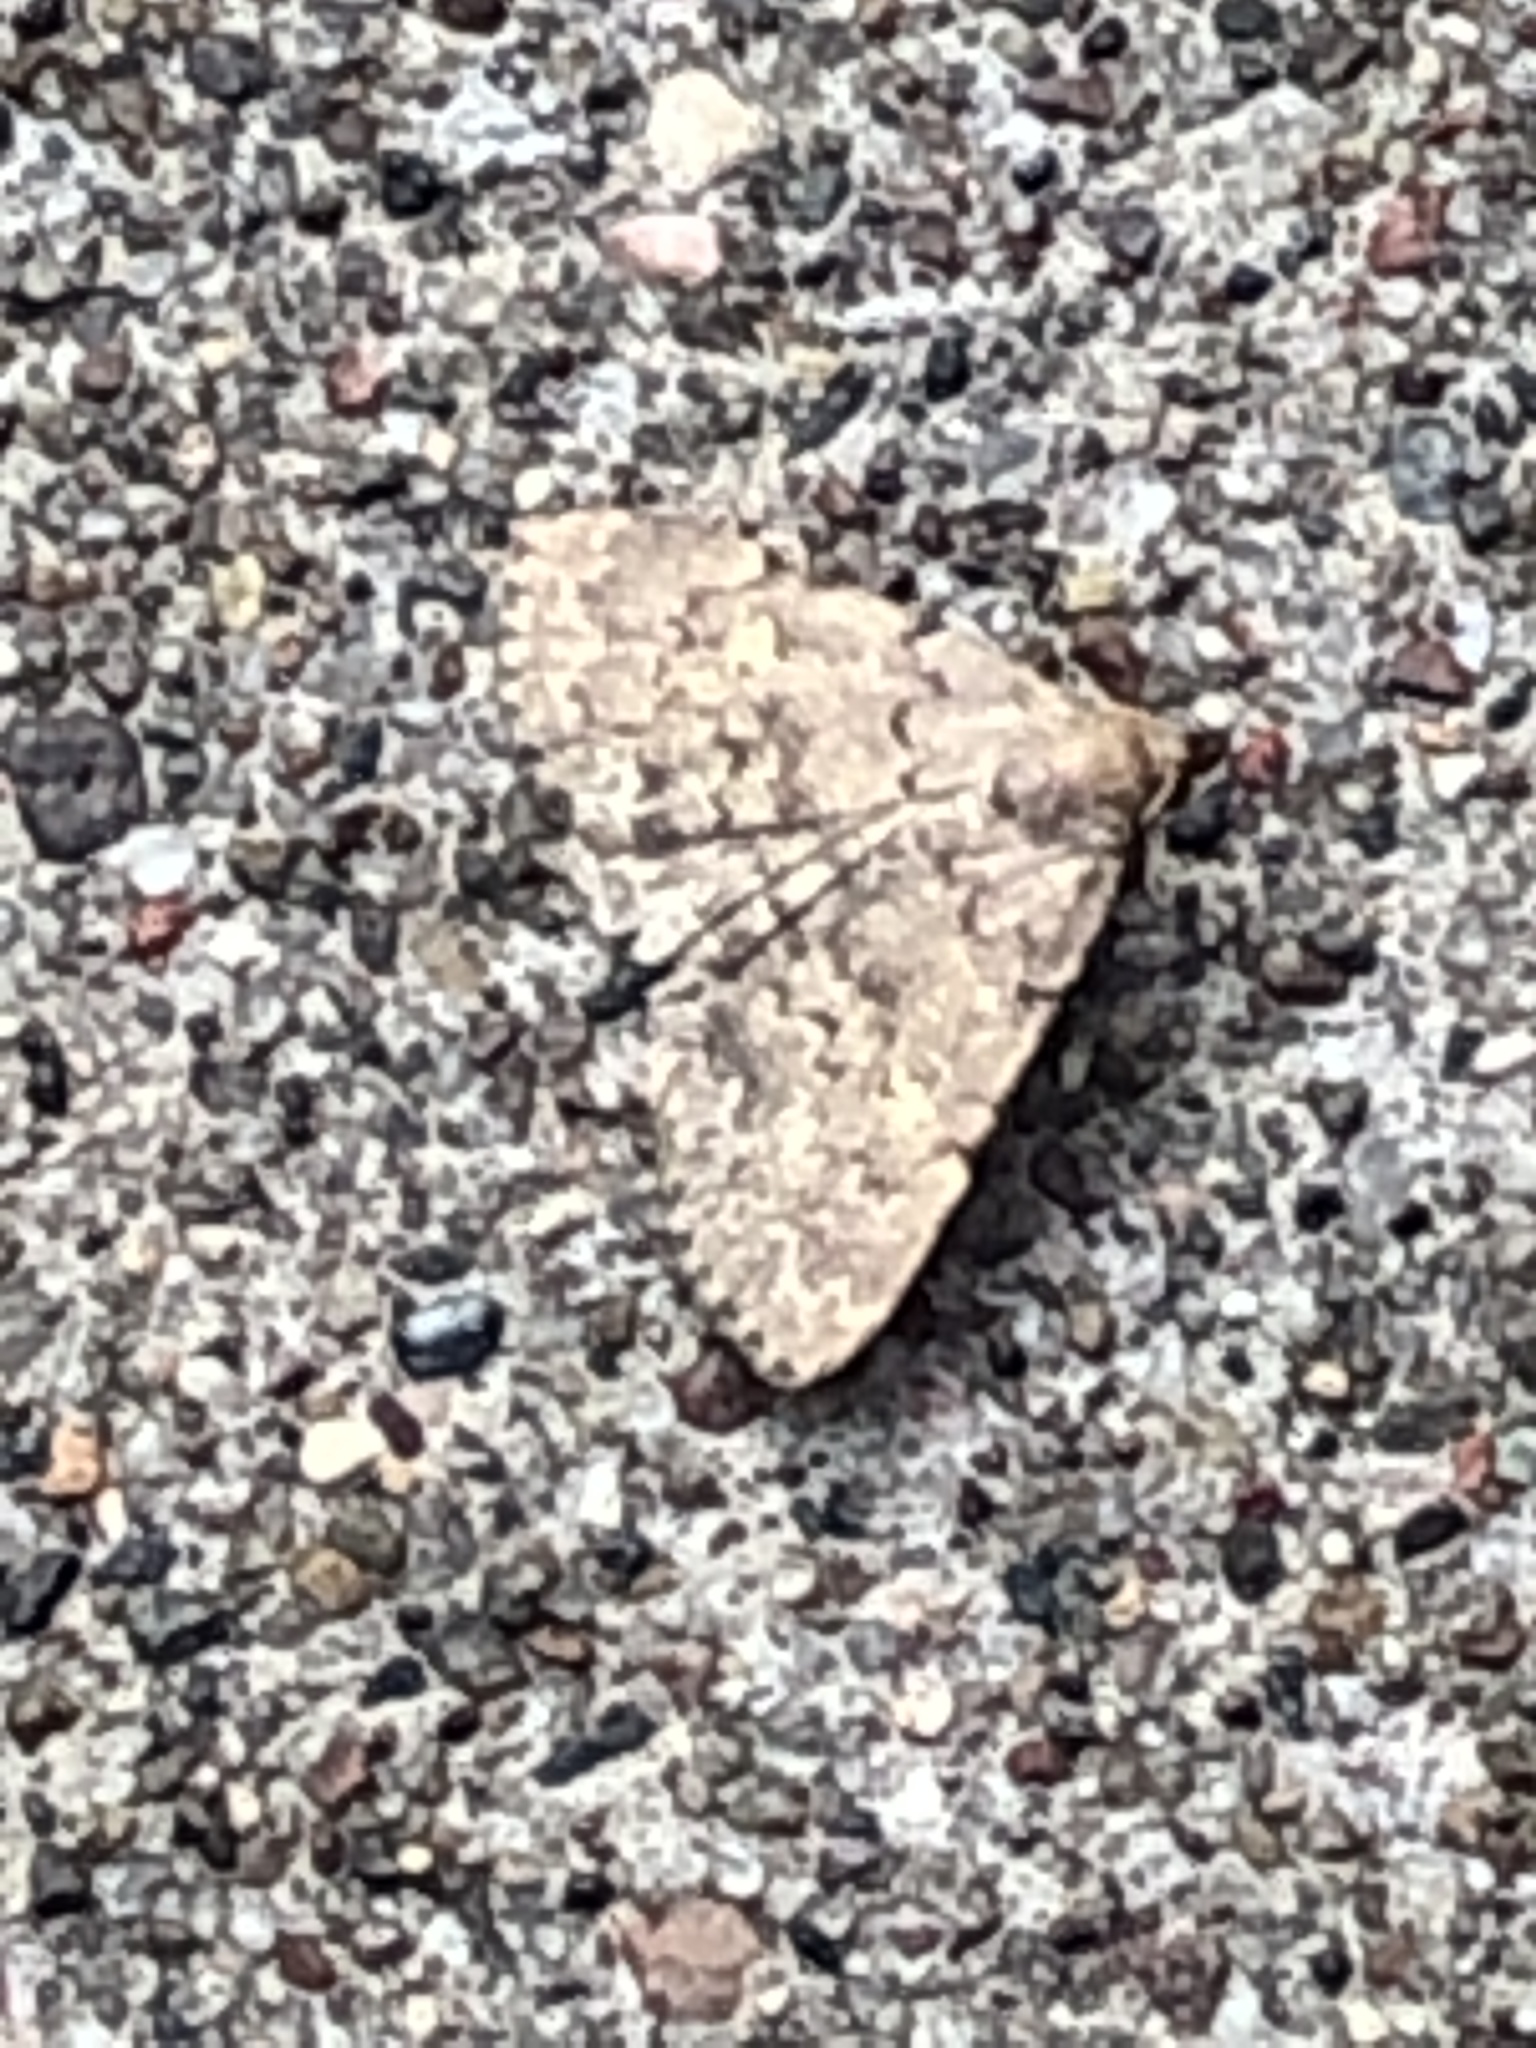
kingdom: Animalia
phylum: Arthropoda
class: Insecta
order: Lepidoptera
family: Erebidae
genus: Idia
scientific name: Idia aemula
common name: Common idia moth
